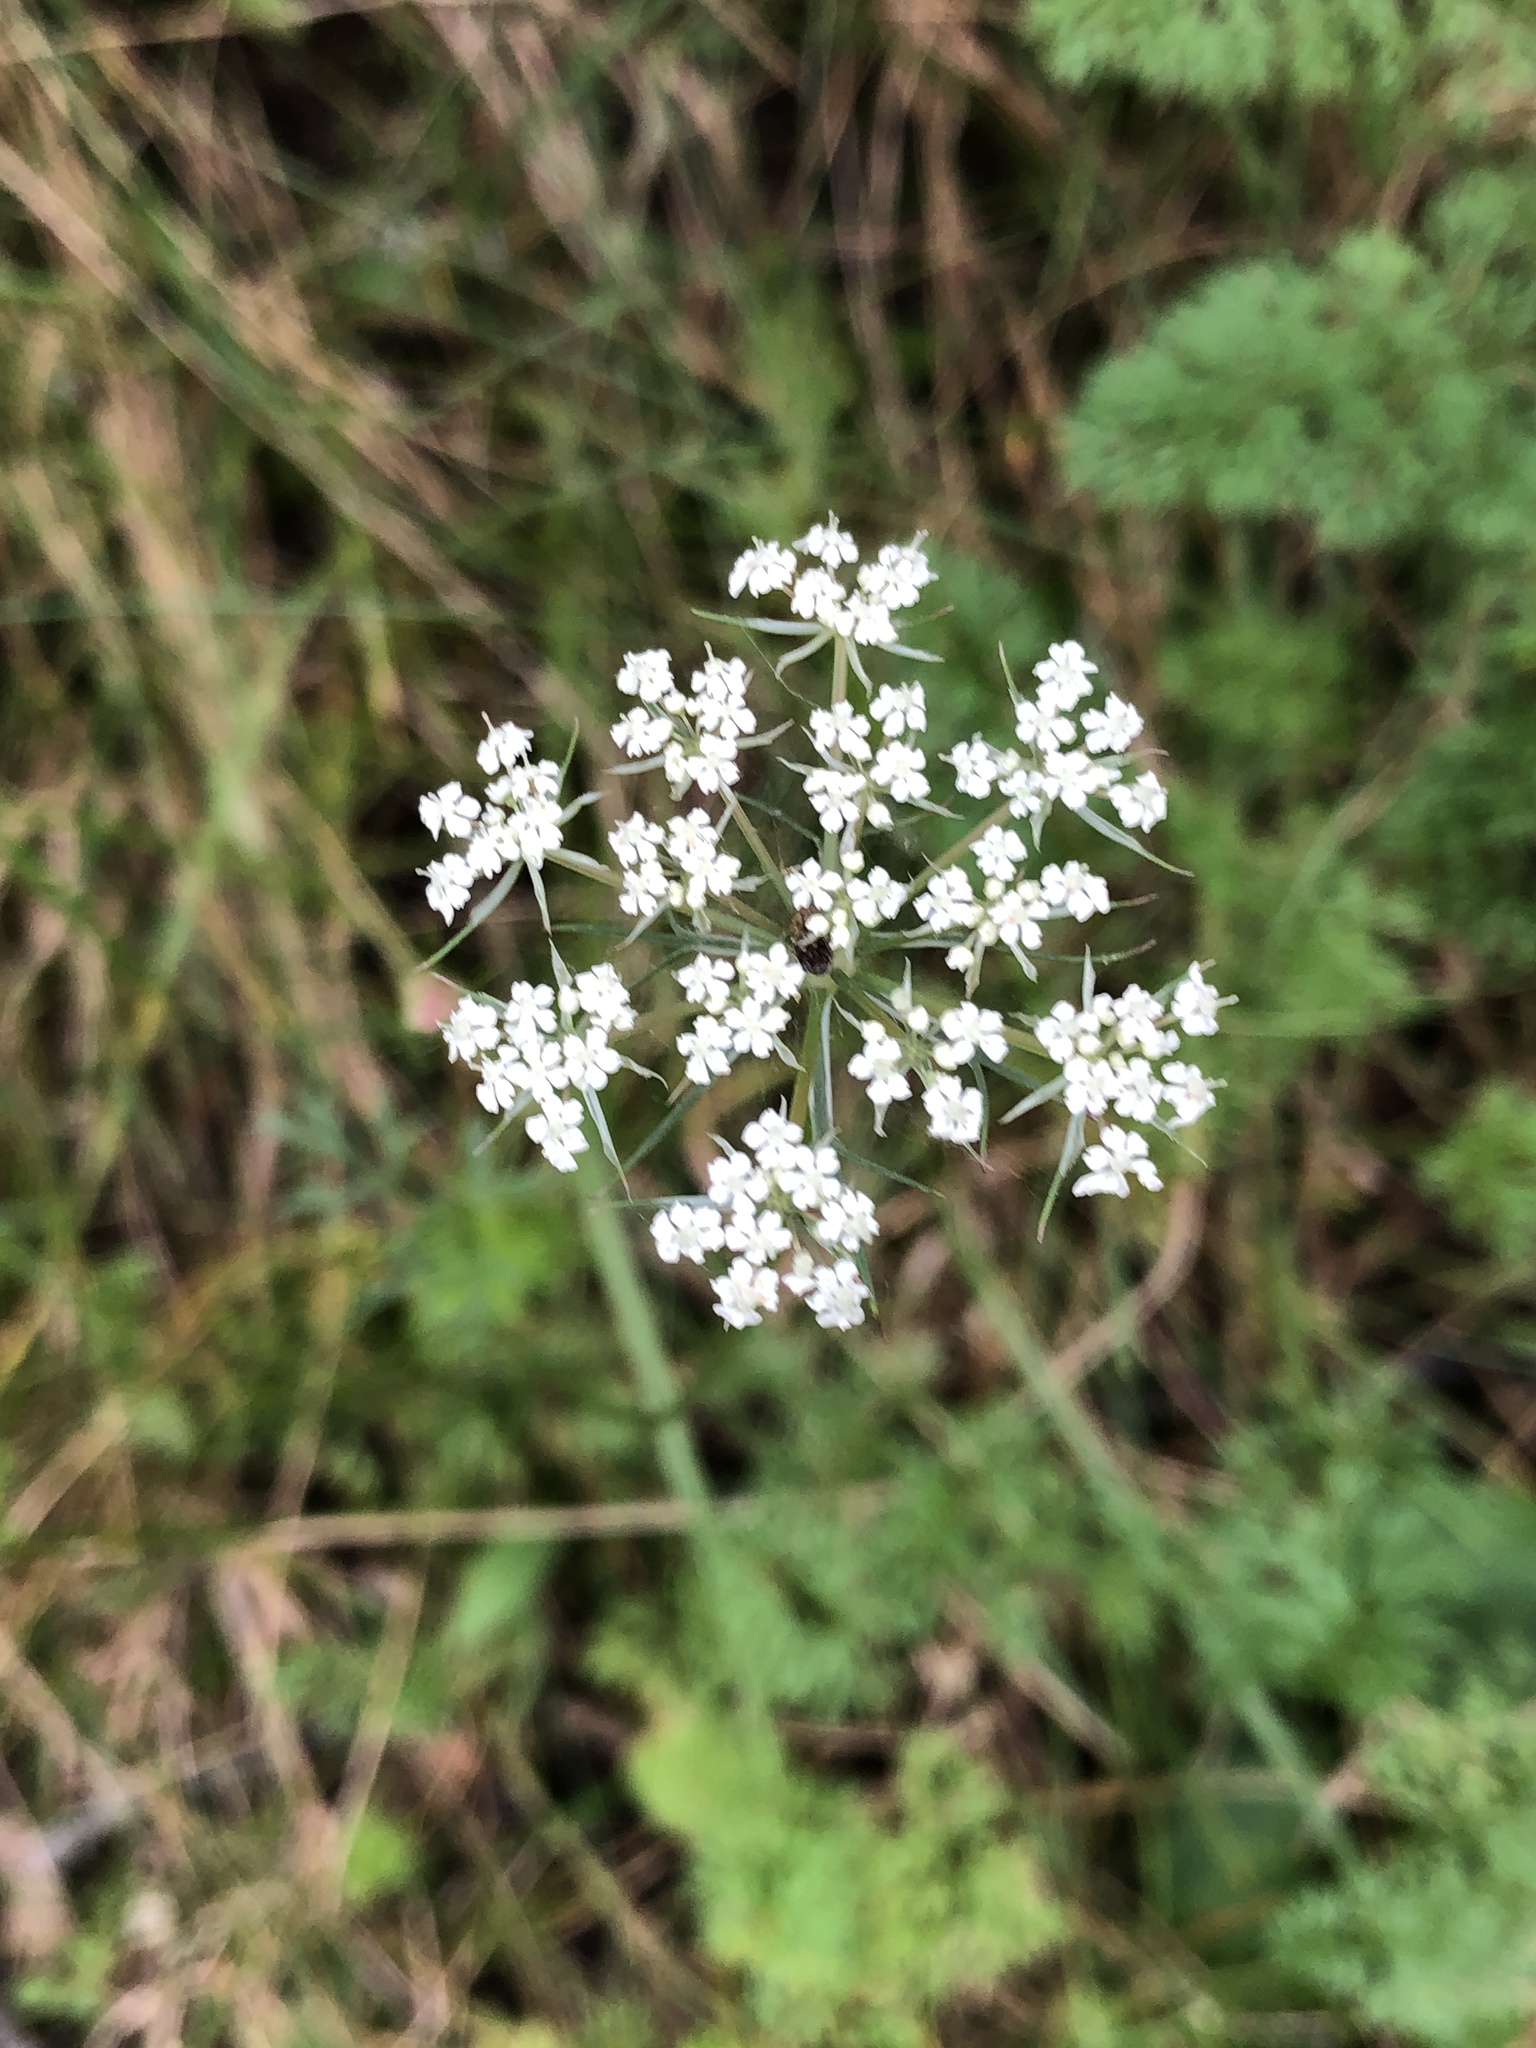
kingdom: Plantae
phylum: Tracheophyta
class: Magnoliopsida
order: Apiales
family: Apiaceae
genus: Daucus
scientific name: Daucus carota
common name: Wild carrot
